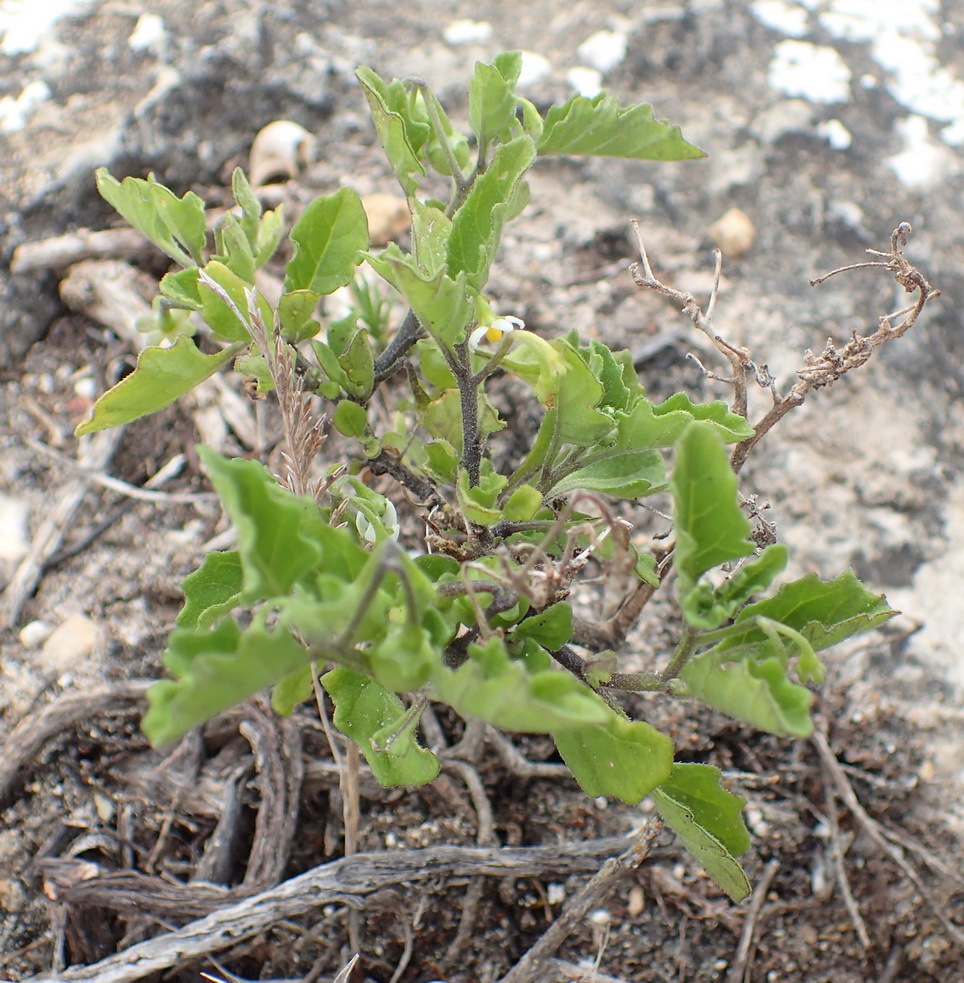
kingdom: Plantae
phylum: Tracheophyta
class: Magnoliopsida
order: Solanales
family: Solanaceae
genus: Solanum
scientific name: Solanum nigrum
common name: Black nightshade
